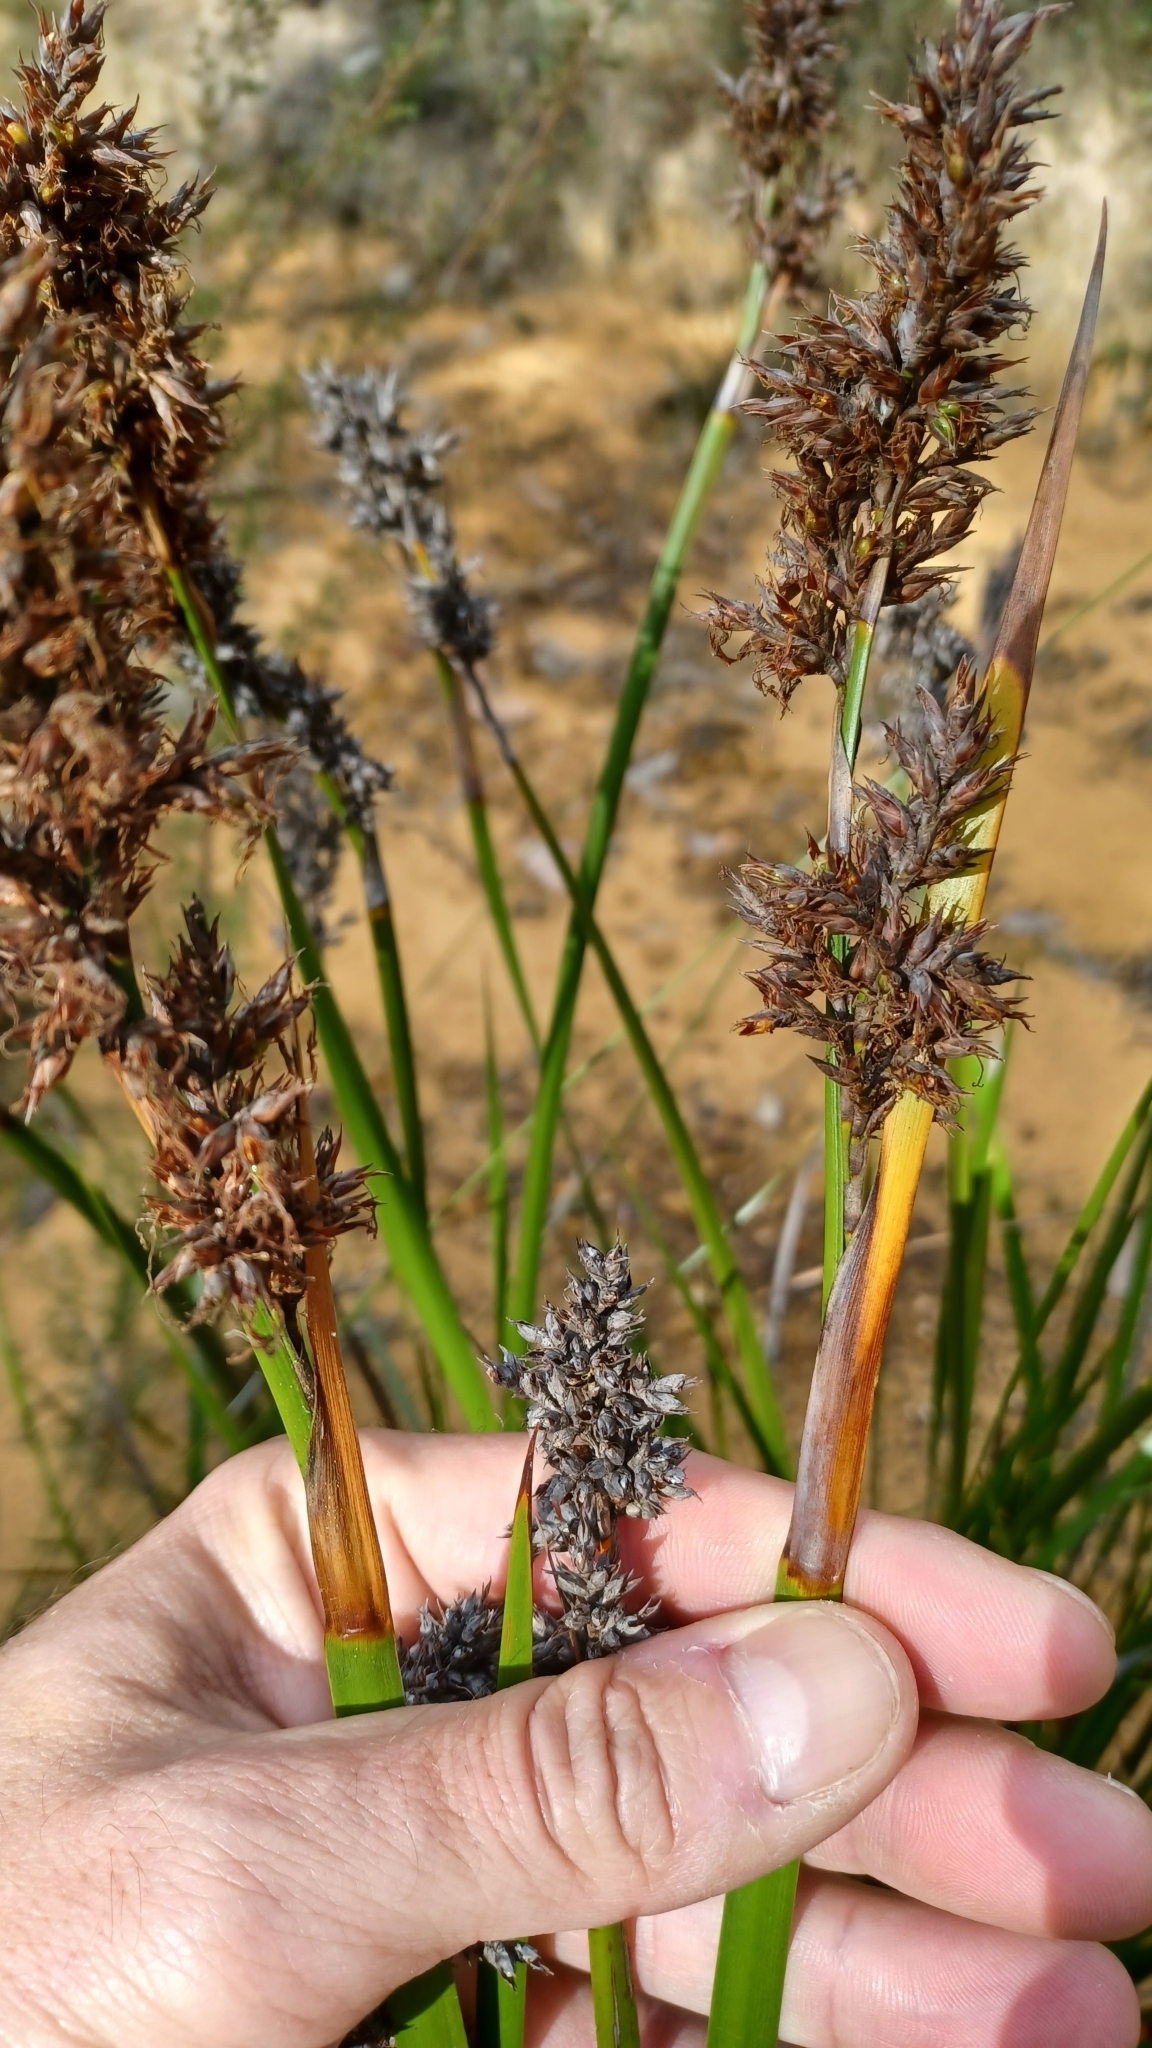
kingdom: Plantae
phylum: Tracheophyta
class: Liliopsida
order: Poales
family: Cyperaceae
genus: Lepidosperma
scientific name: Lepidosperma gladiatum
